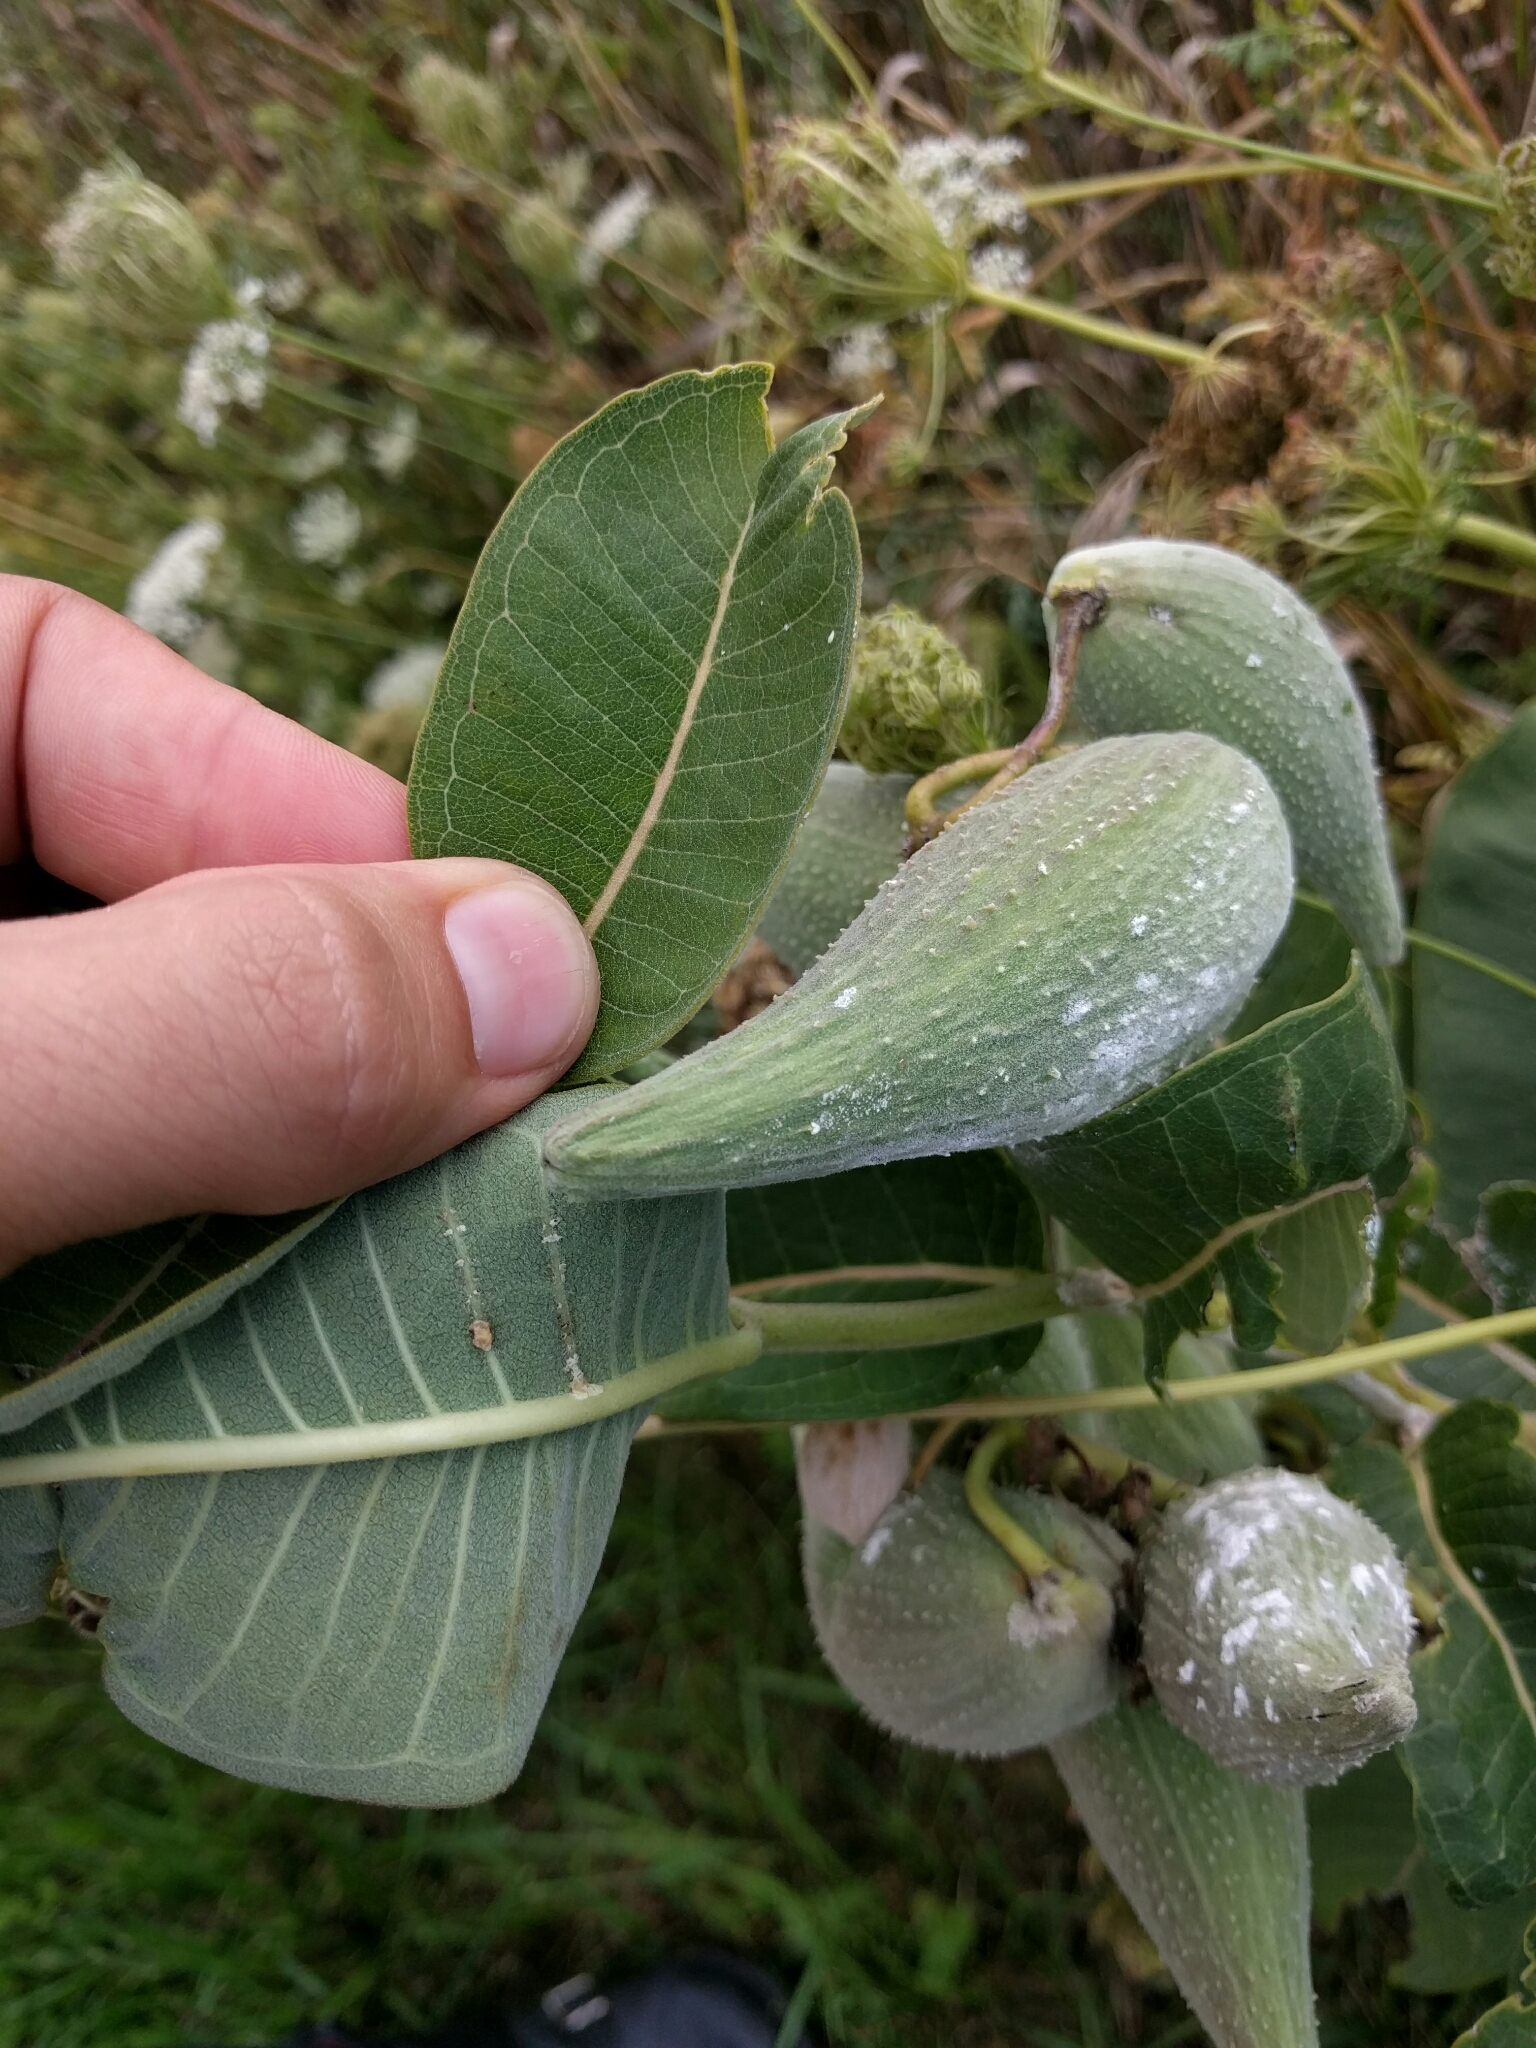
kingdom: Plantae
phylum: Tracheophyta
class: Magnoliopsida
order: Gentianales
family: Apocynaceae
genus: Asclepias
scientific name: Asclepias syriaca
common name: Common milkweed
